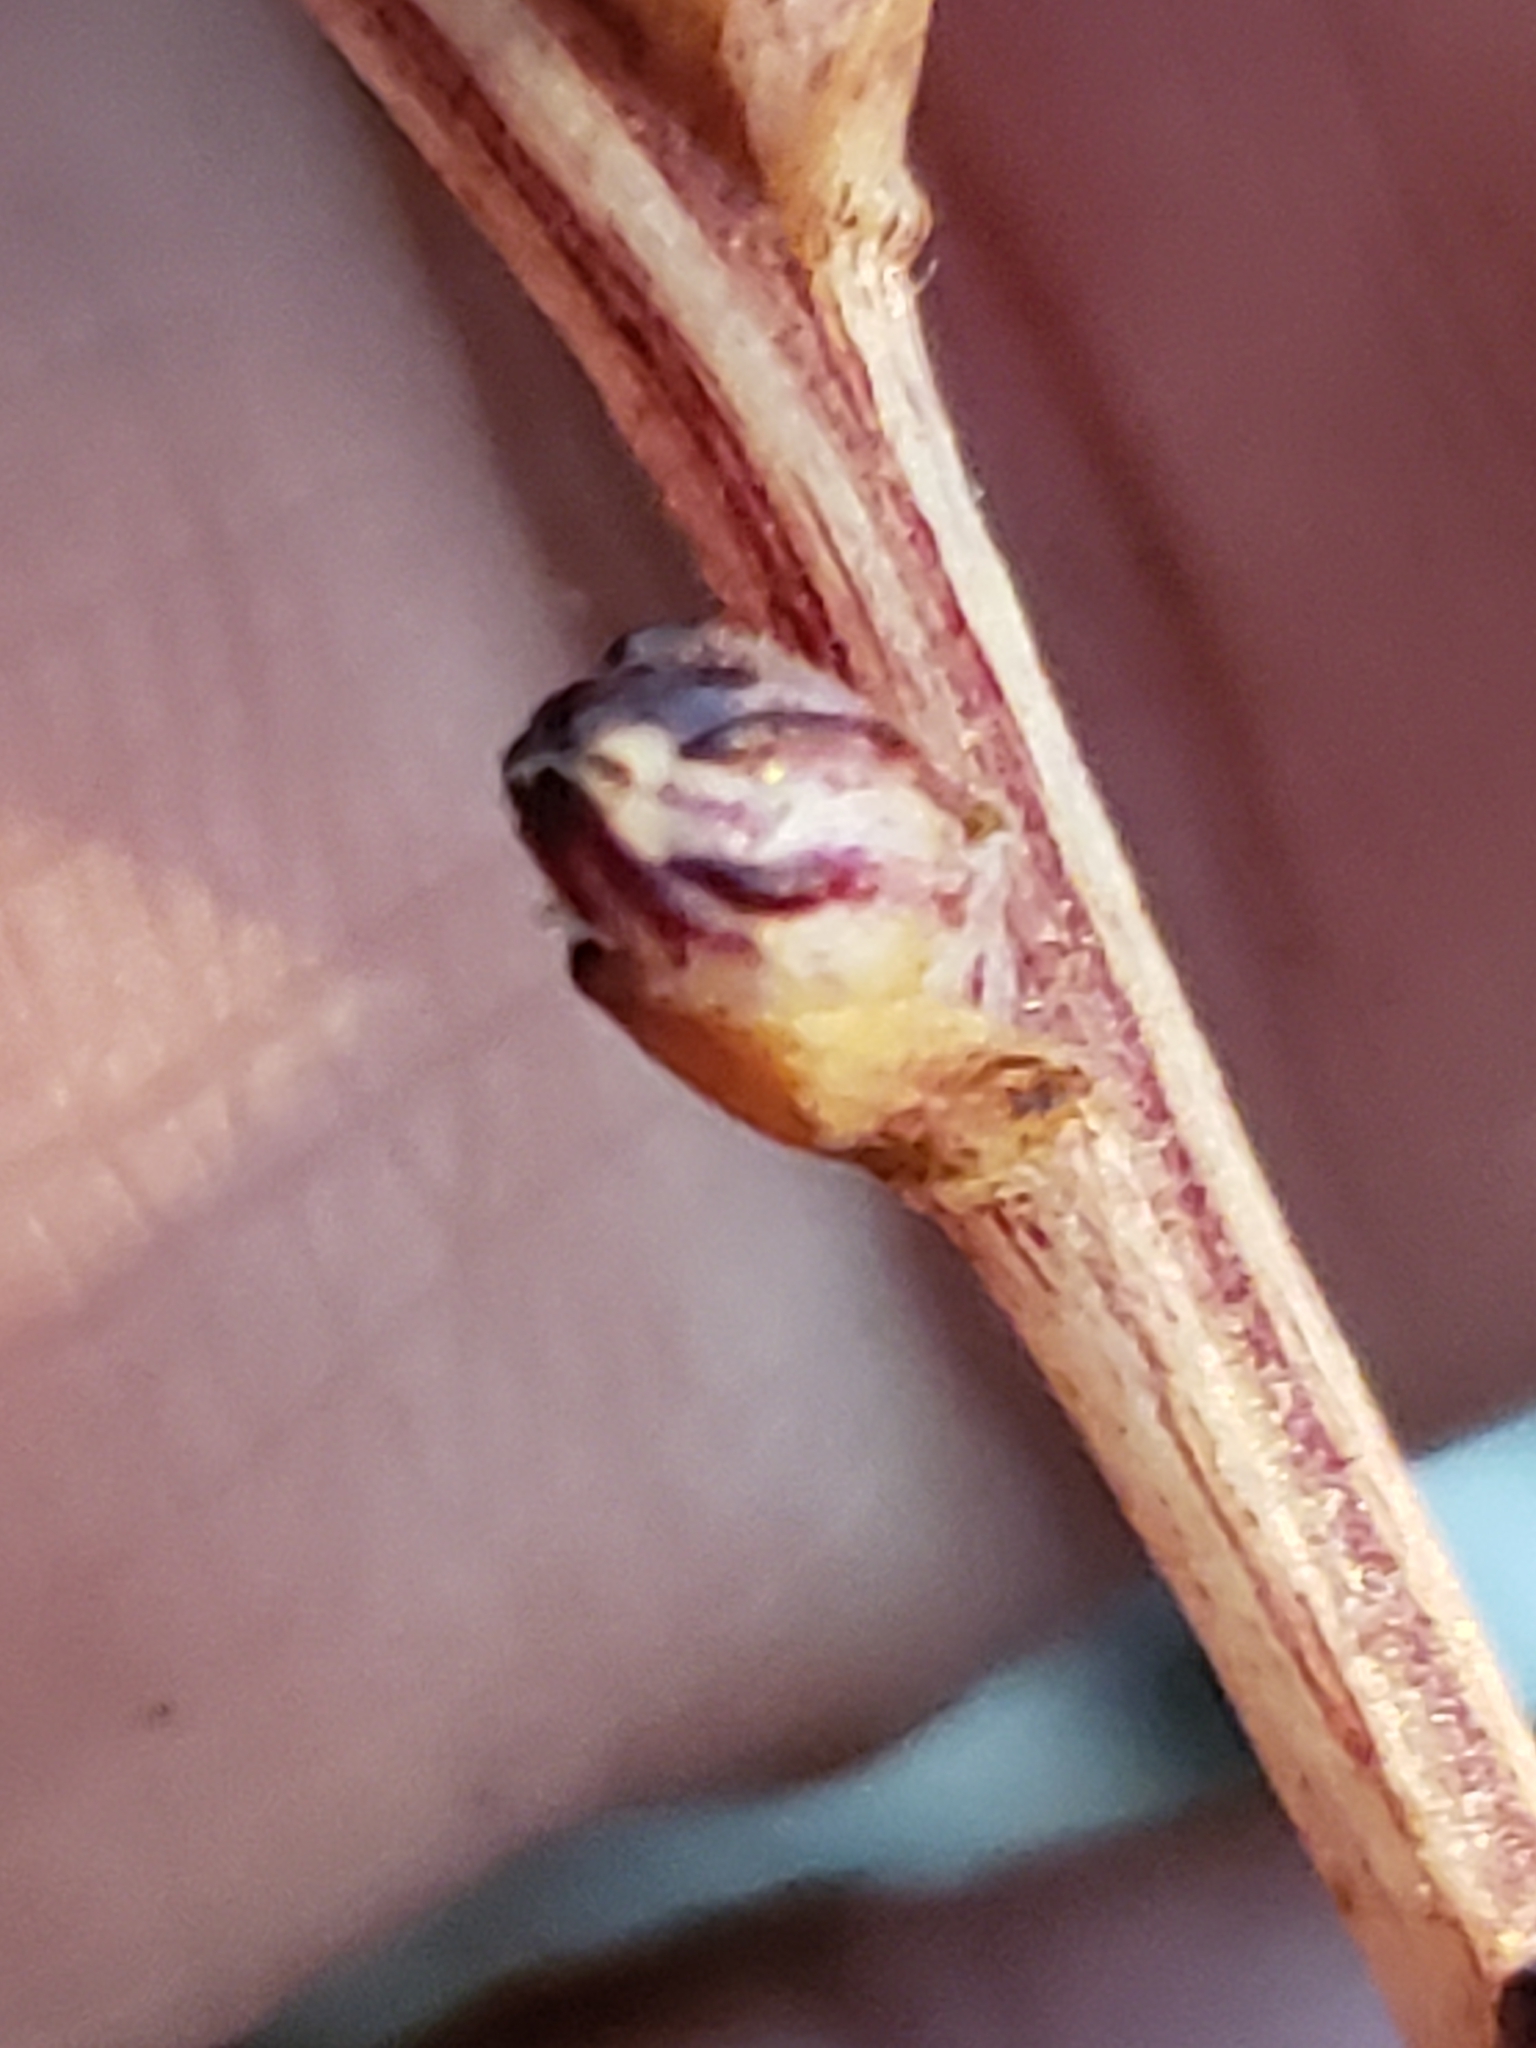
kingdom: Plantae
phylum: Tracheophyta
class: Magnoliopsida
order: Lamiales
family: Orobanchaceae
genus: Epifagus
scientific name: Epifagus virginiana
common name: Beechdrops
